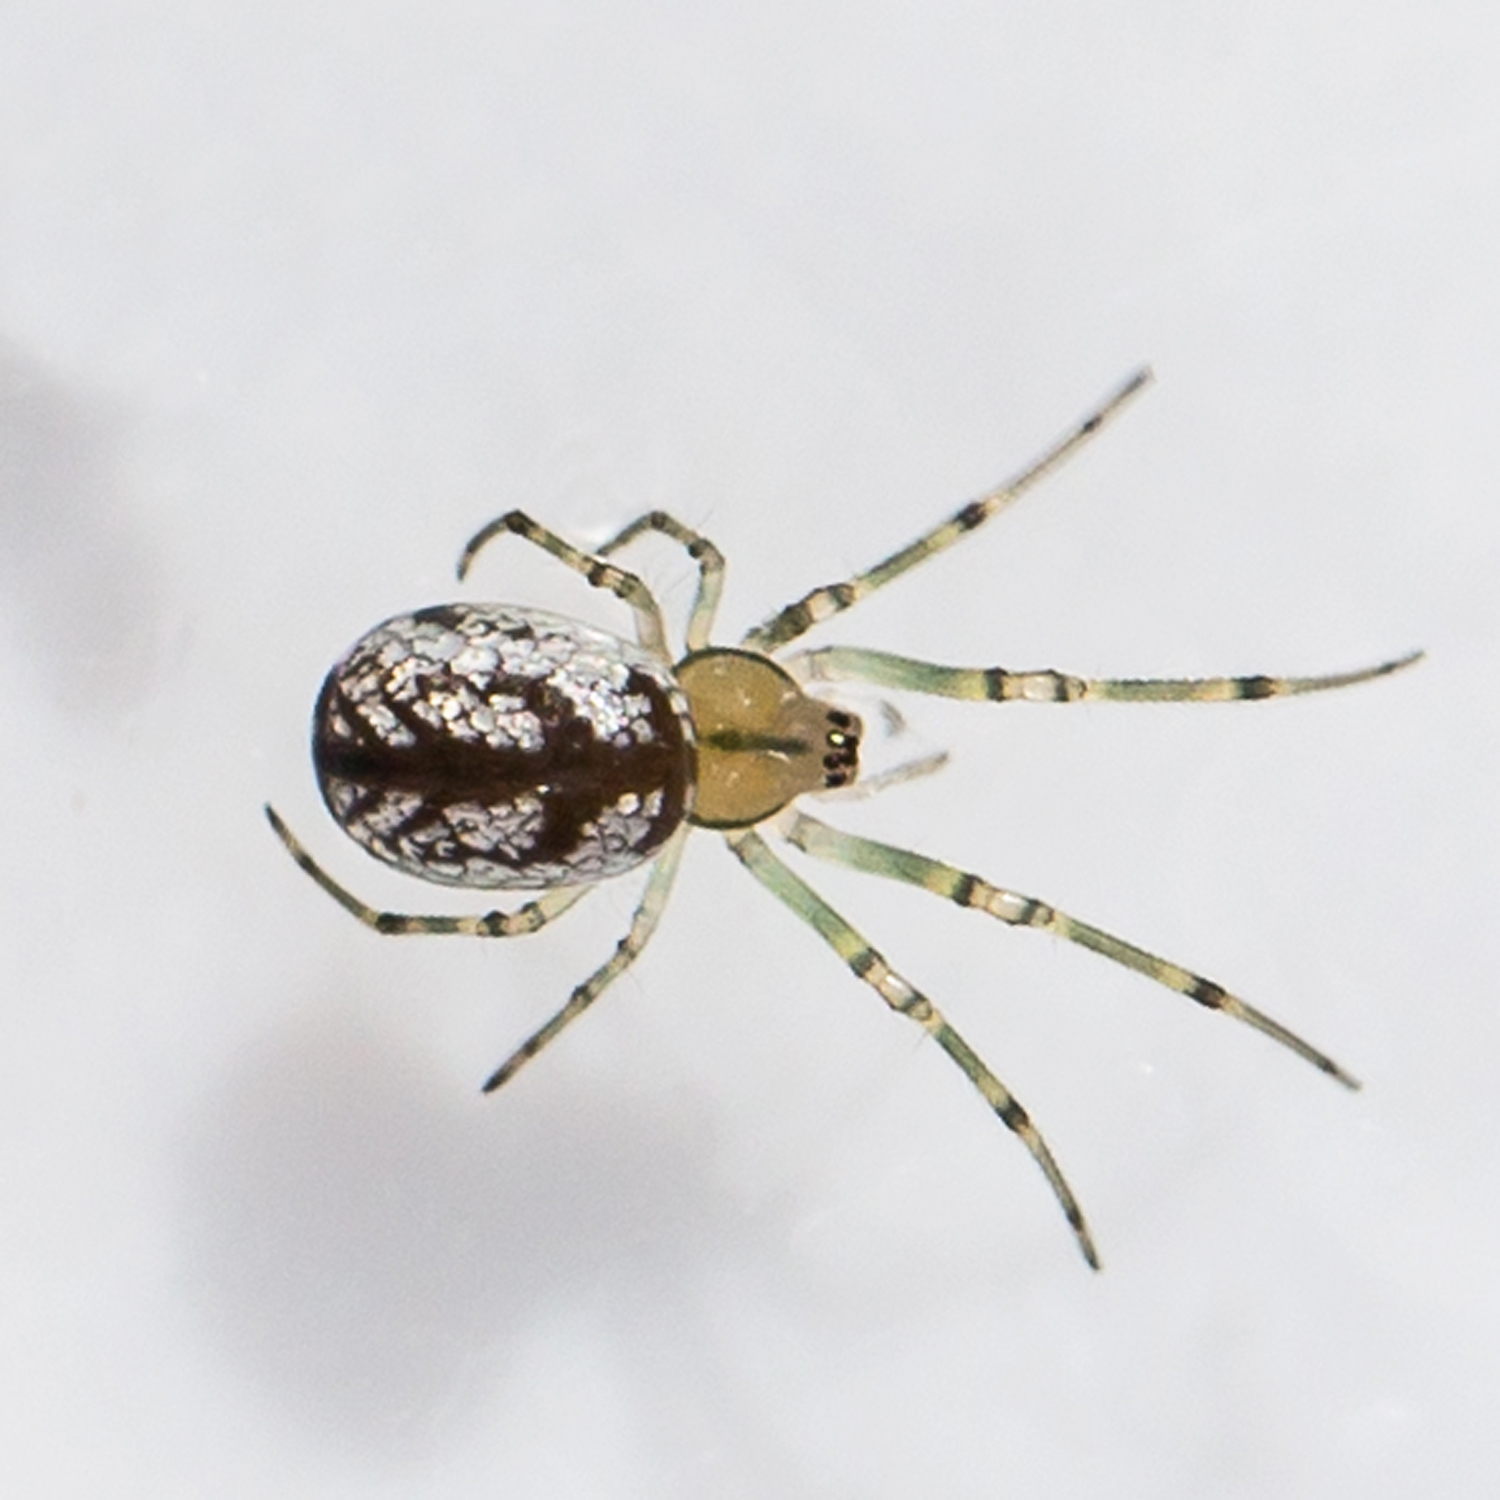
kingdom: Animalia
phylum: Arthropoda
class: Arachnida
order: Araneae
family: Tetragnathidae
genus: Leucauge
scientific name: Leucauge venusta
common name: Longjawed orb weavers
